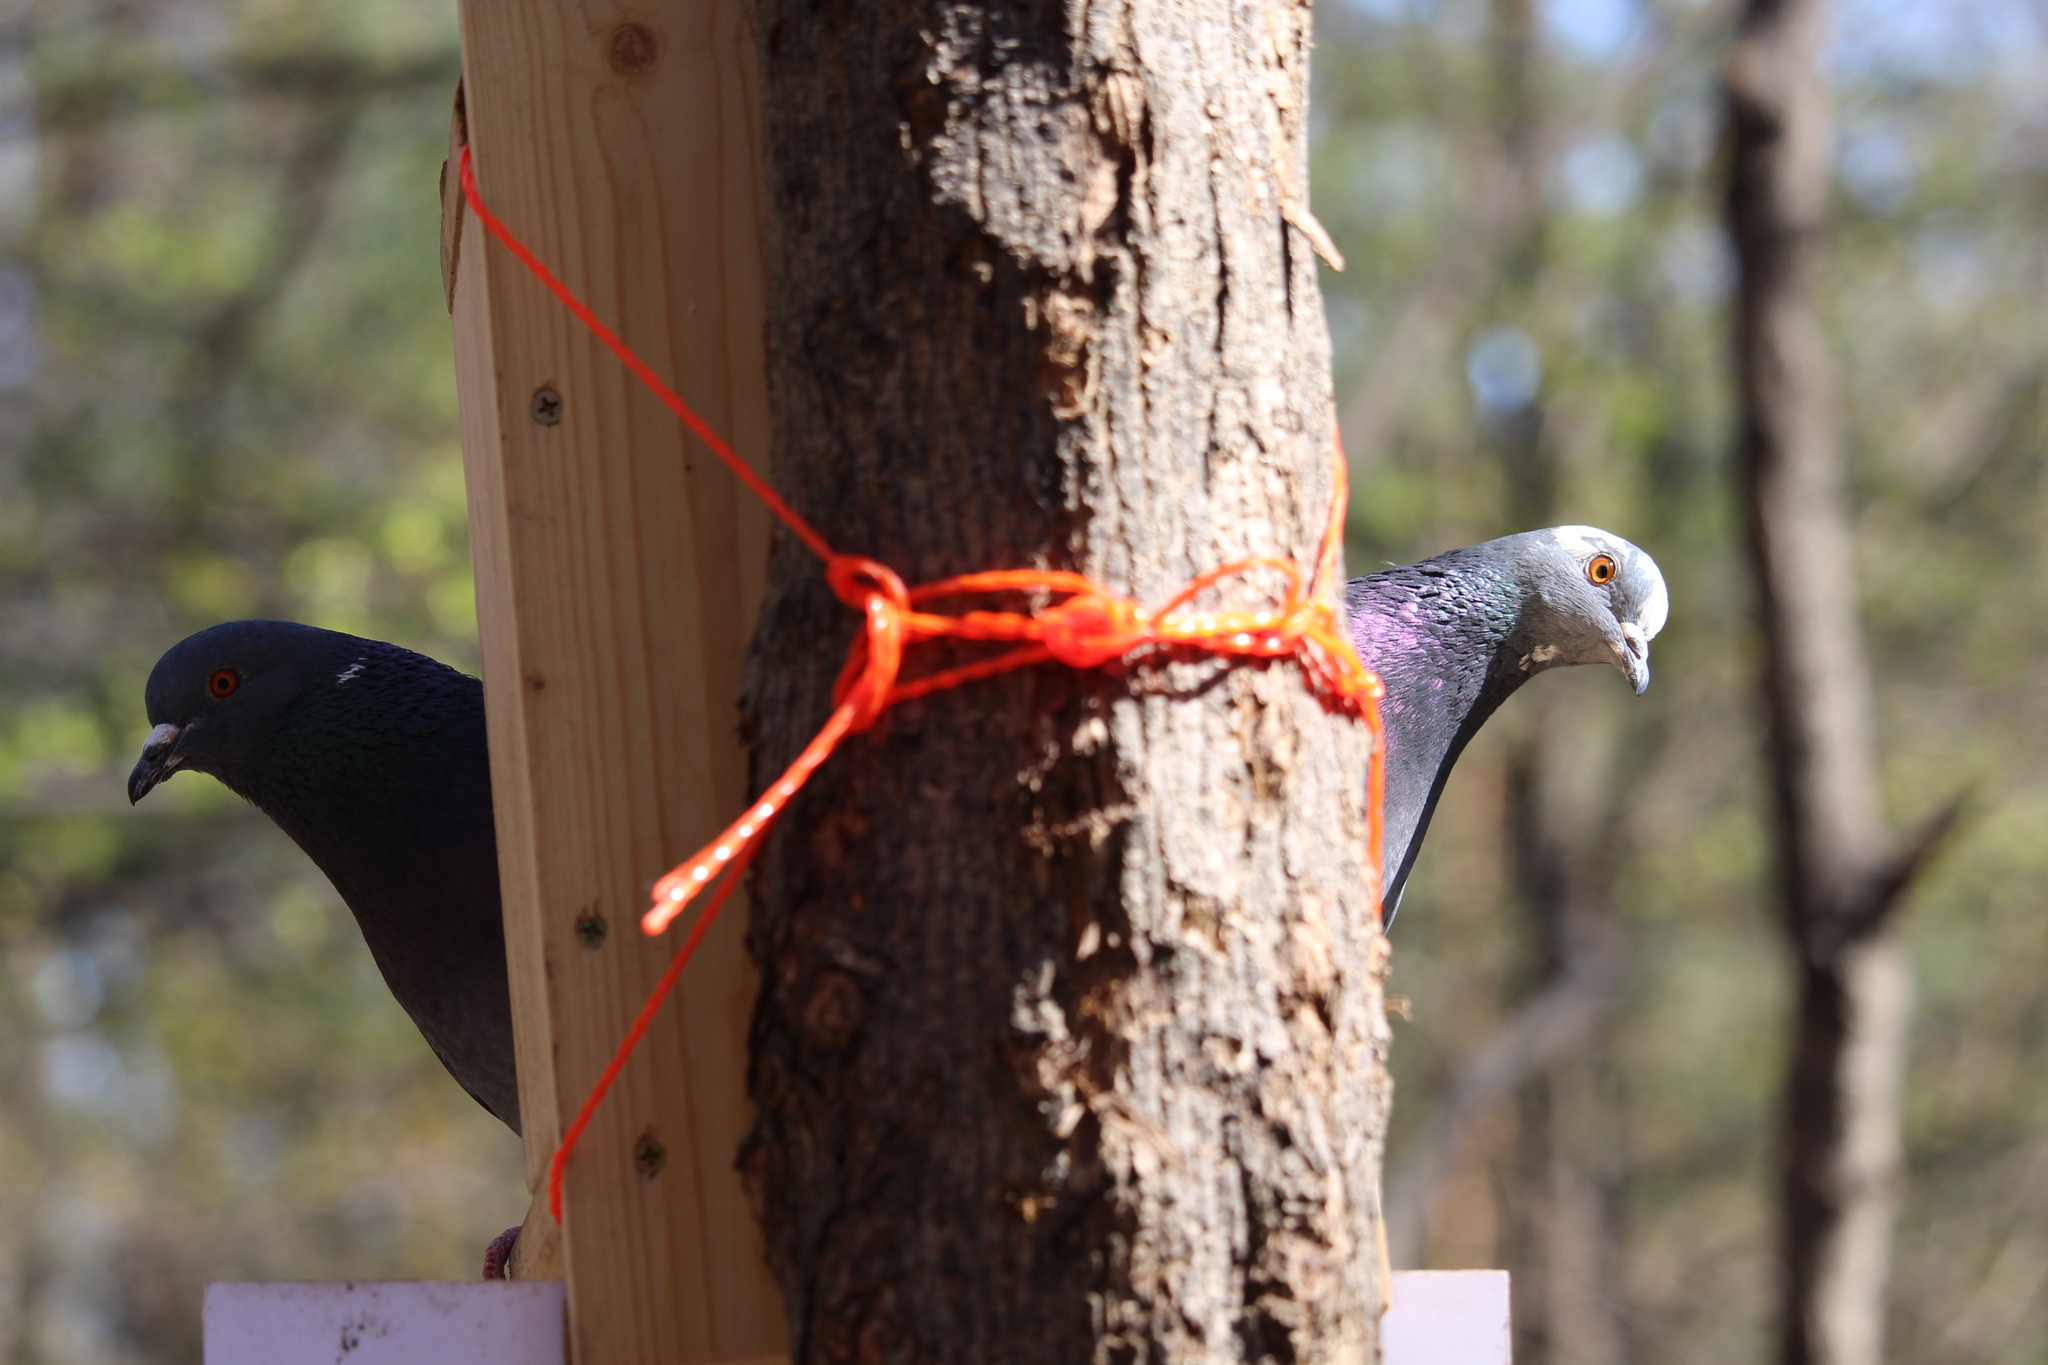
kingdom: Animalia
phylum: Chordata
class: Aves
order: Columbiformes
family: Columbidae
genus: Columba
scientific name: Columba livia
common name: Rock pigeon
